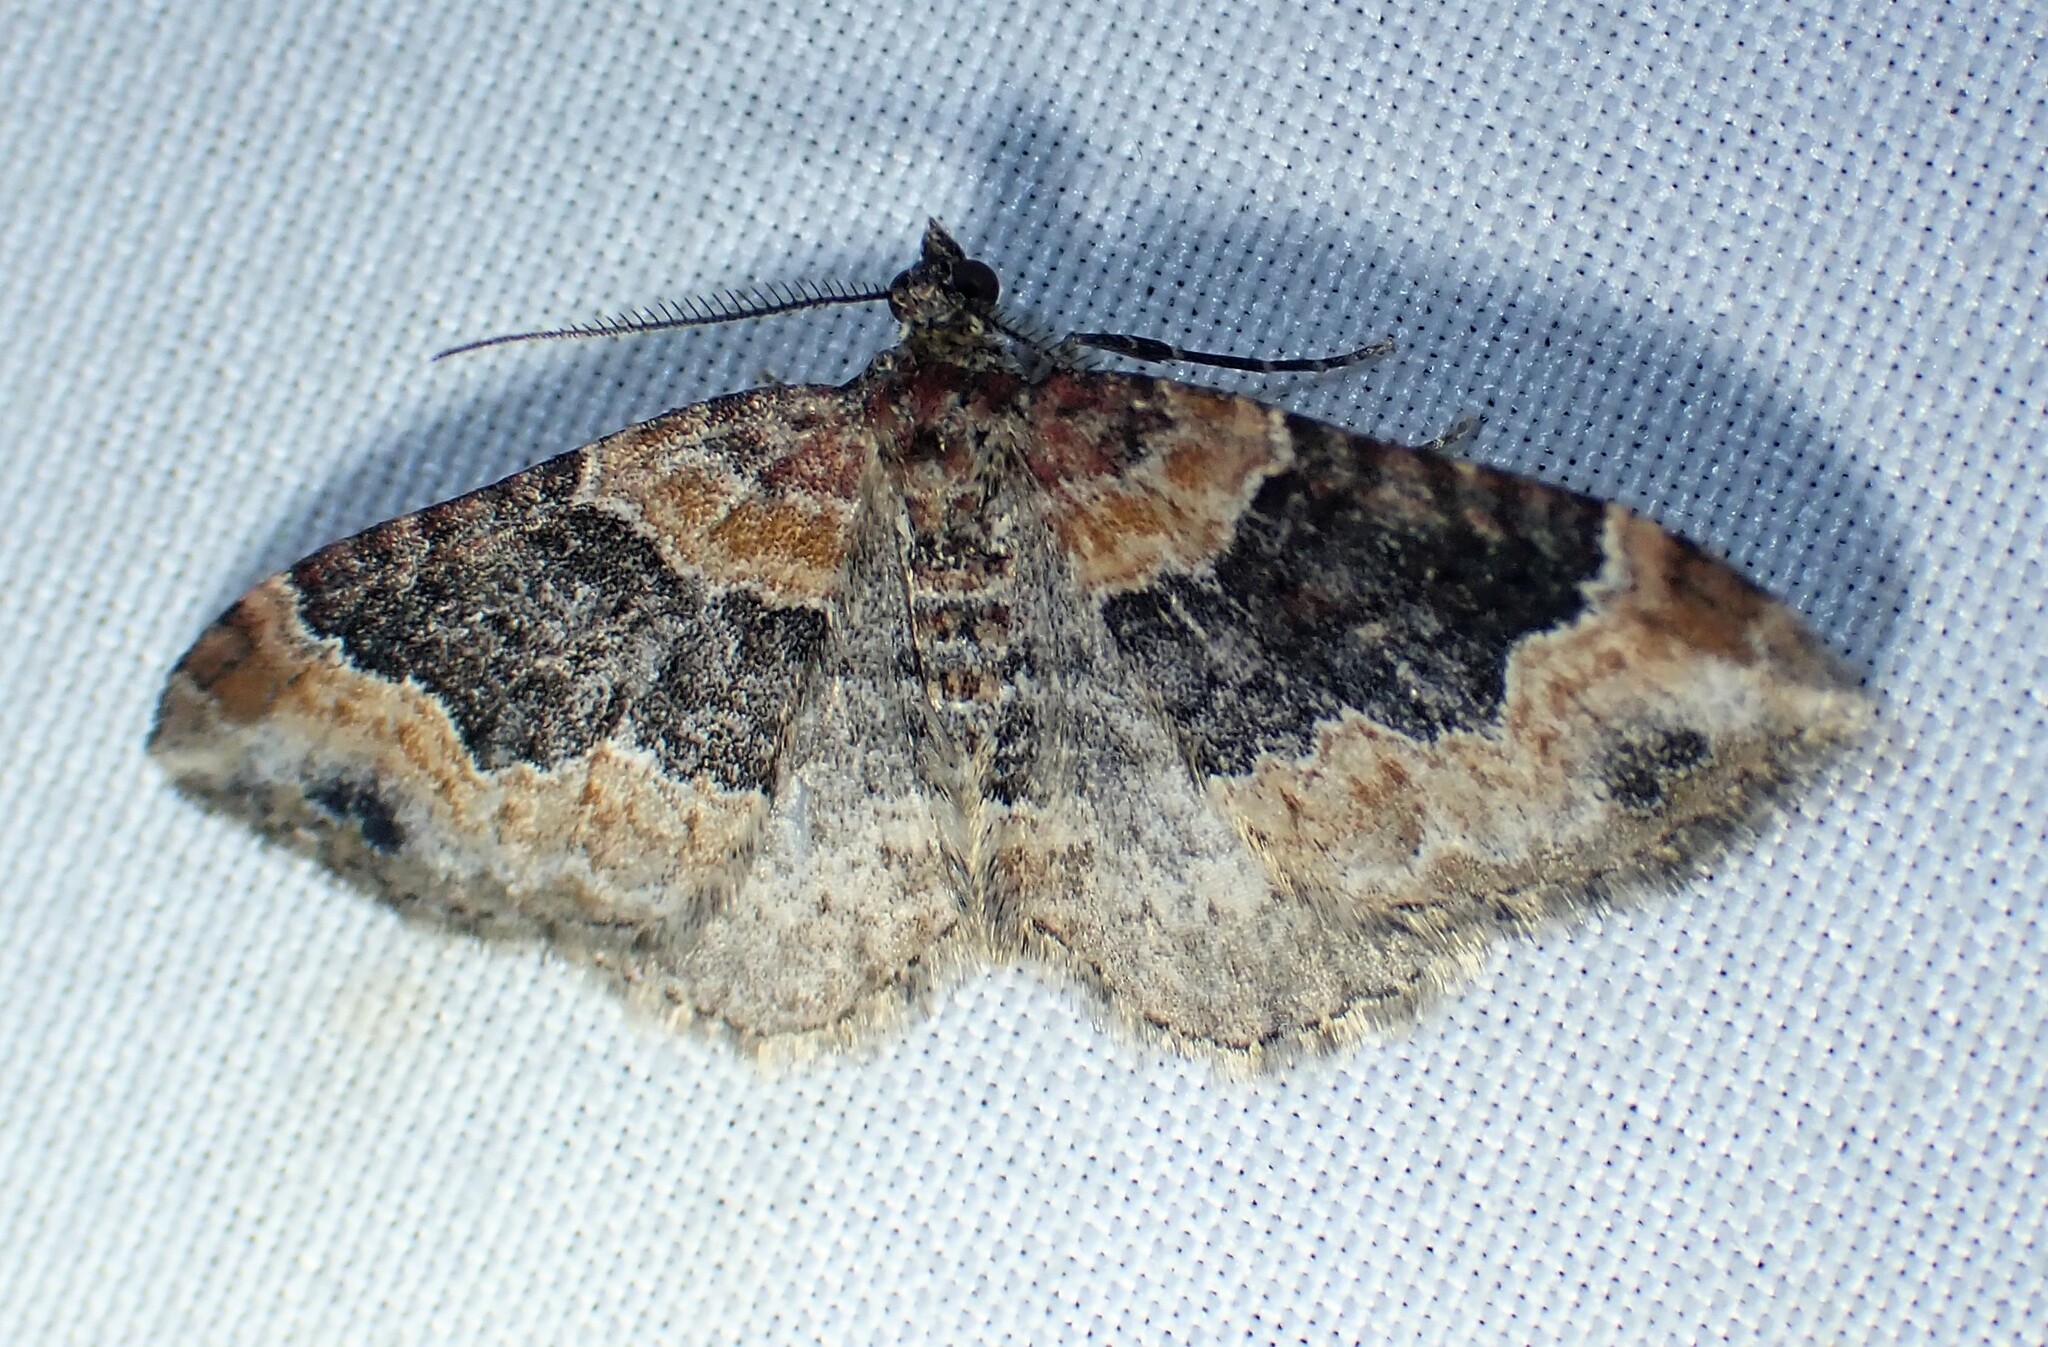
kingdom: Animalia
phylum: Arthropoda
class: Insecta
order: Lepidoptera
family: Geometridae
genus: Xanthorhoe
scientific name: Xanthorhoe ferrugata
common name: Dark-barred twin-spot carpet
